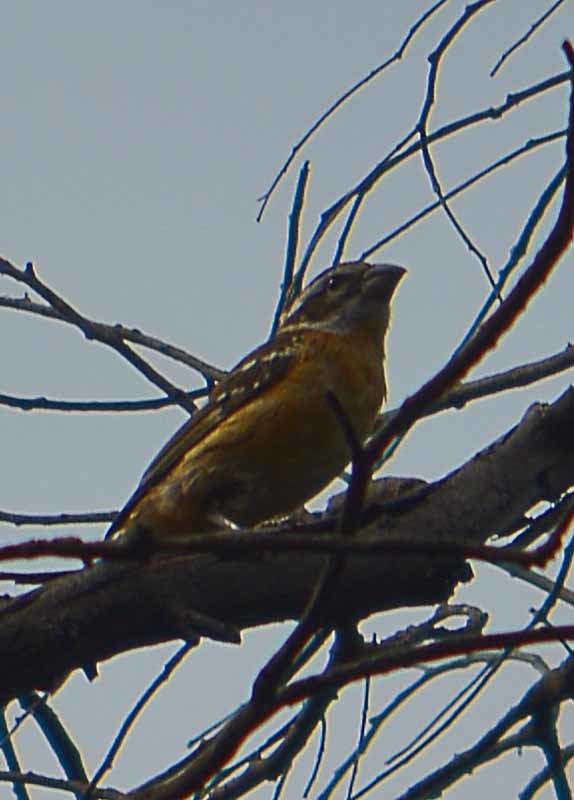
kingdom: Animalia
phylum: Chordata
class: Aves
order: Passeriformes
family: Cardinalidae
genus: Pheucticus
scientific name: Pheucticus melanocephalus
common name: Black-headed grosbeak
